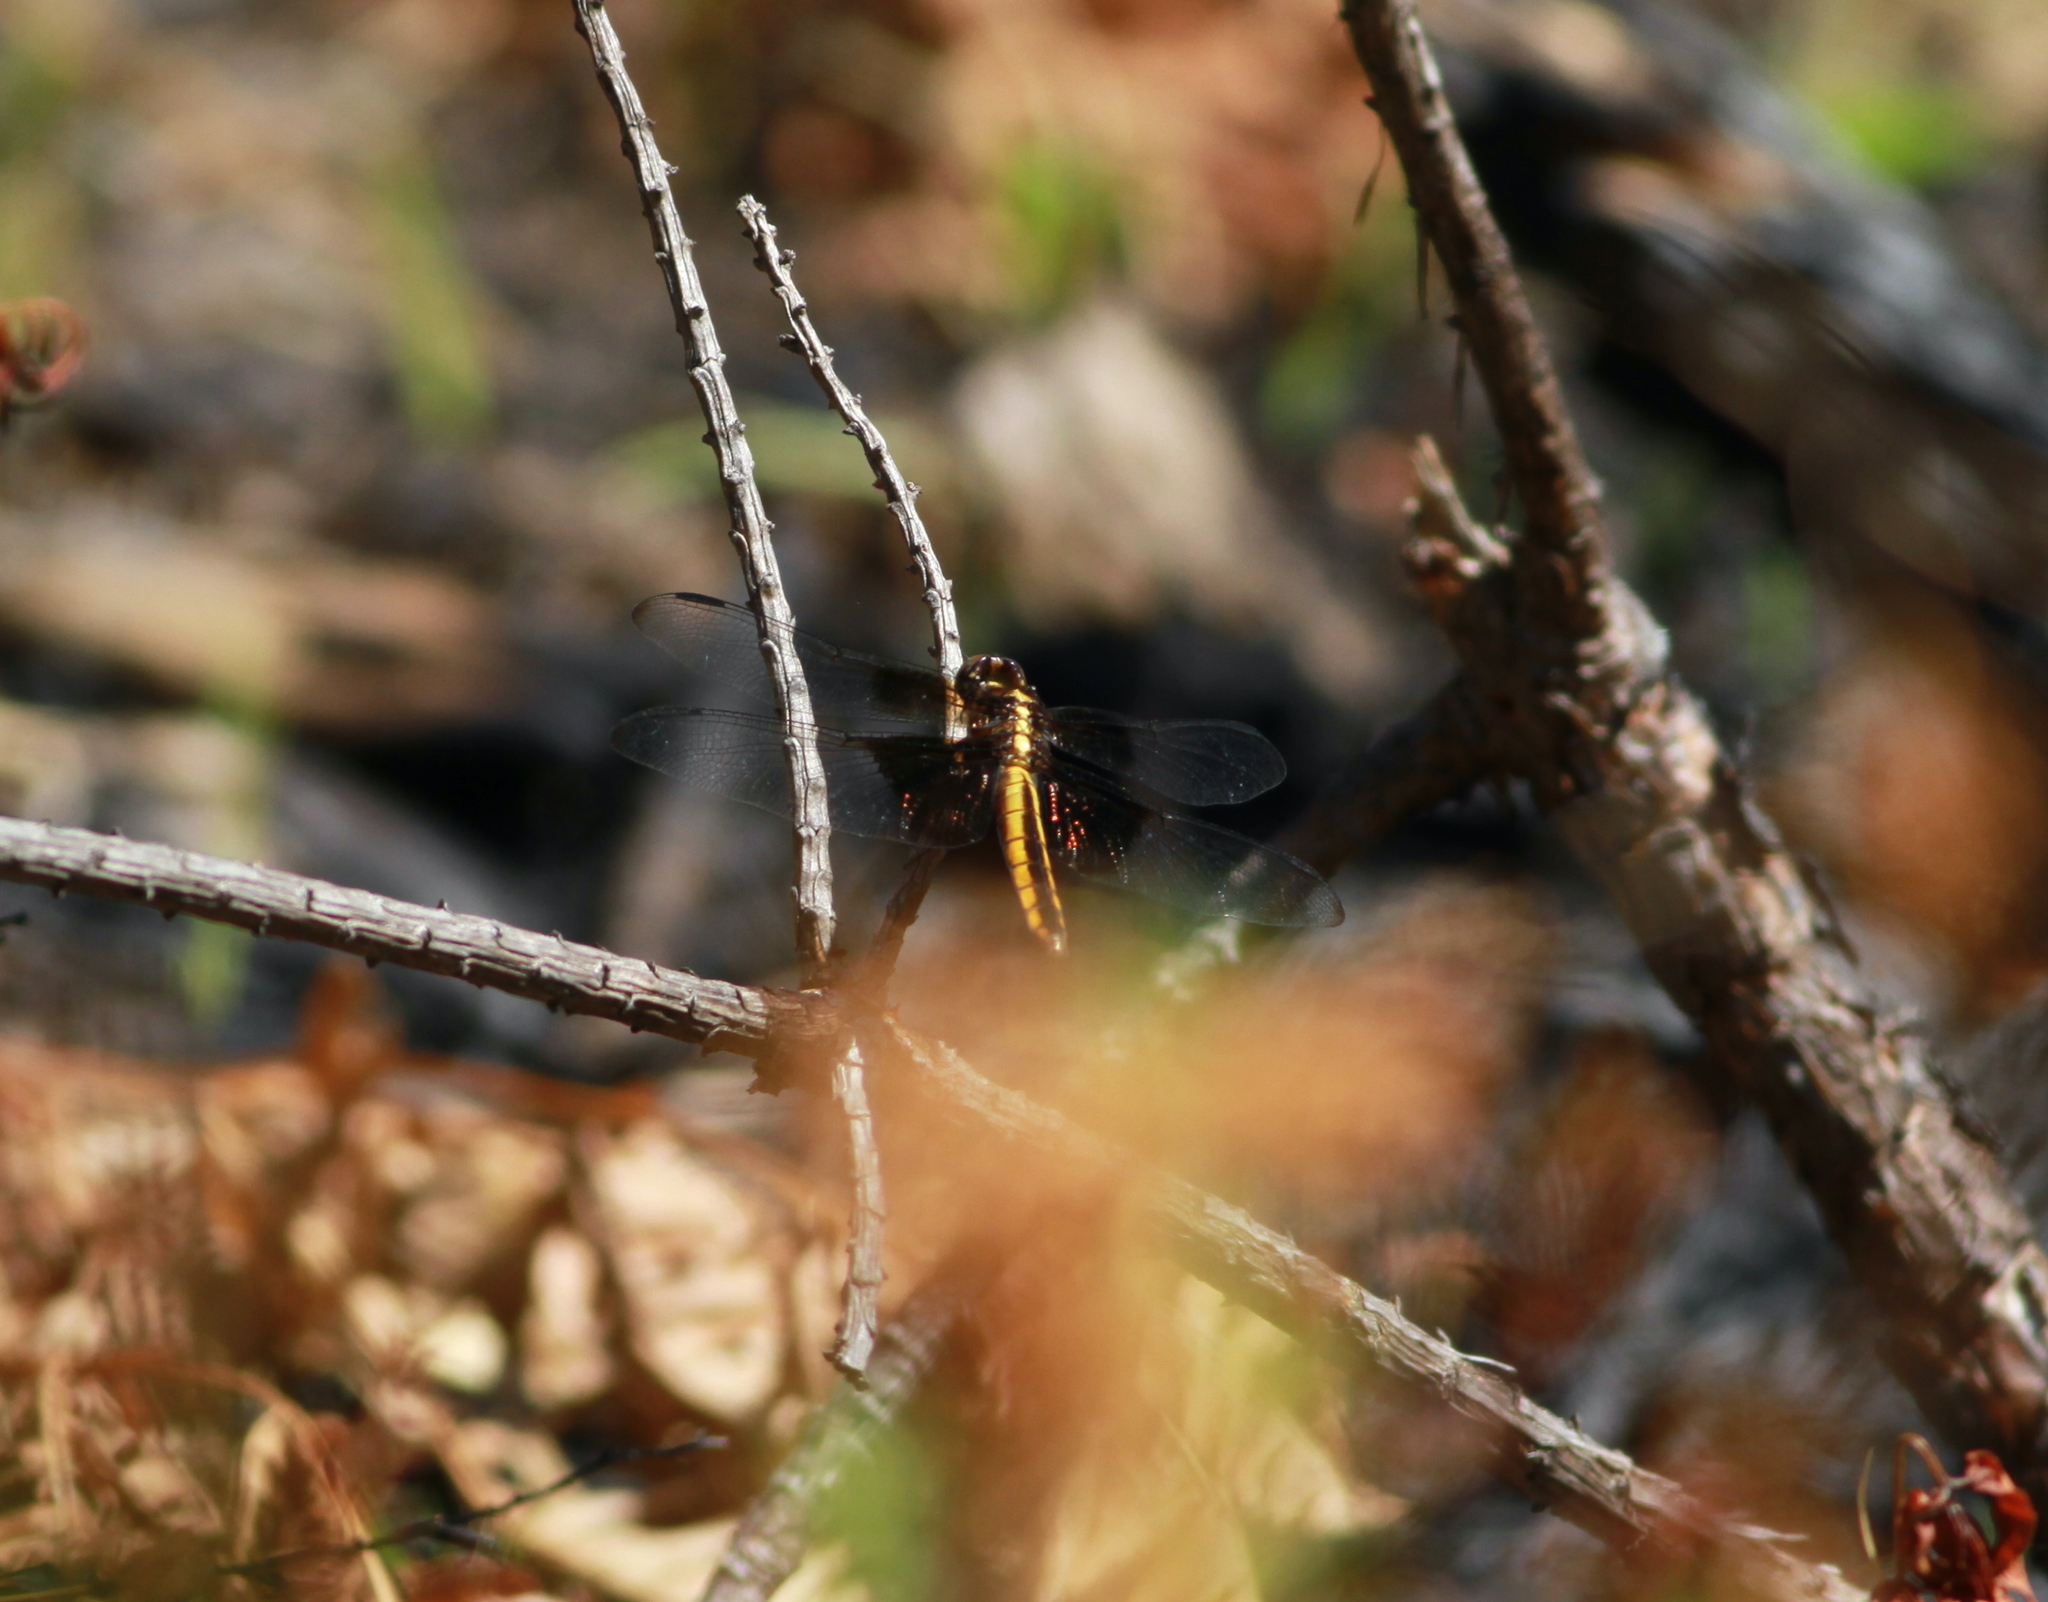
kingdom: Animalia
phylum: Arthropoda
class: Insecta
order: Odonata
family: Libellulidae
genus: Libellula
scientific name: Libellula luctuosa
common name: Widow skimmer
